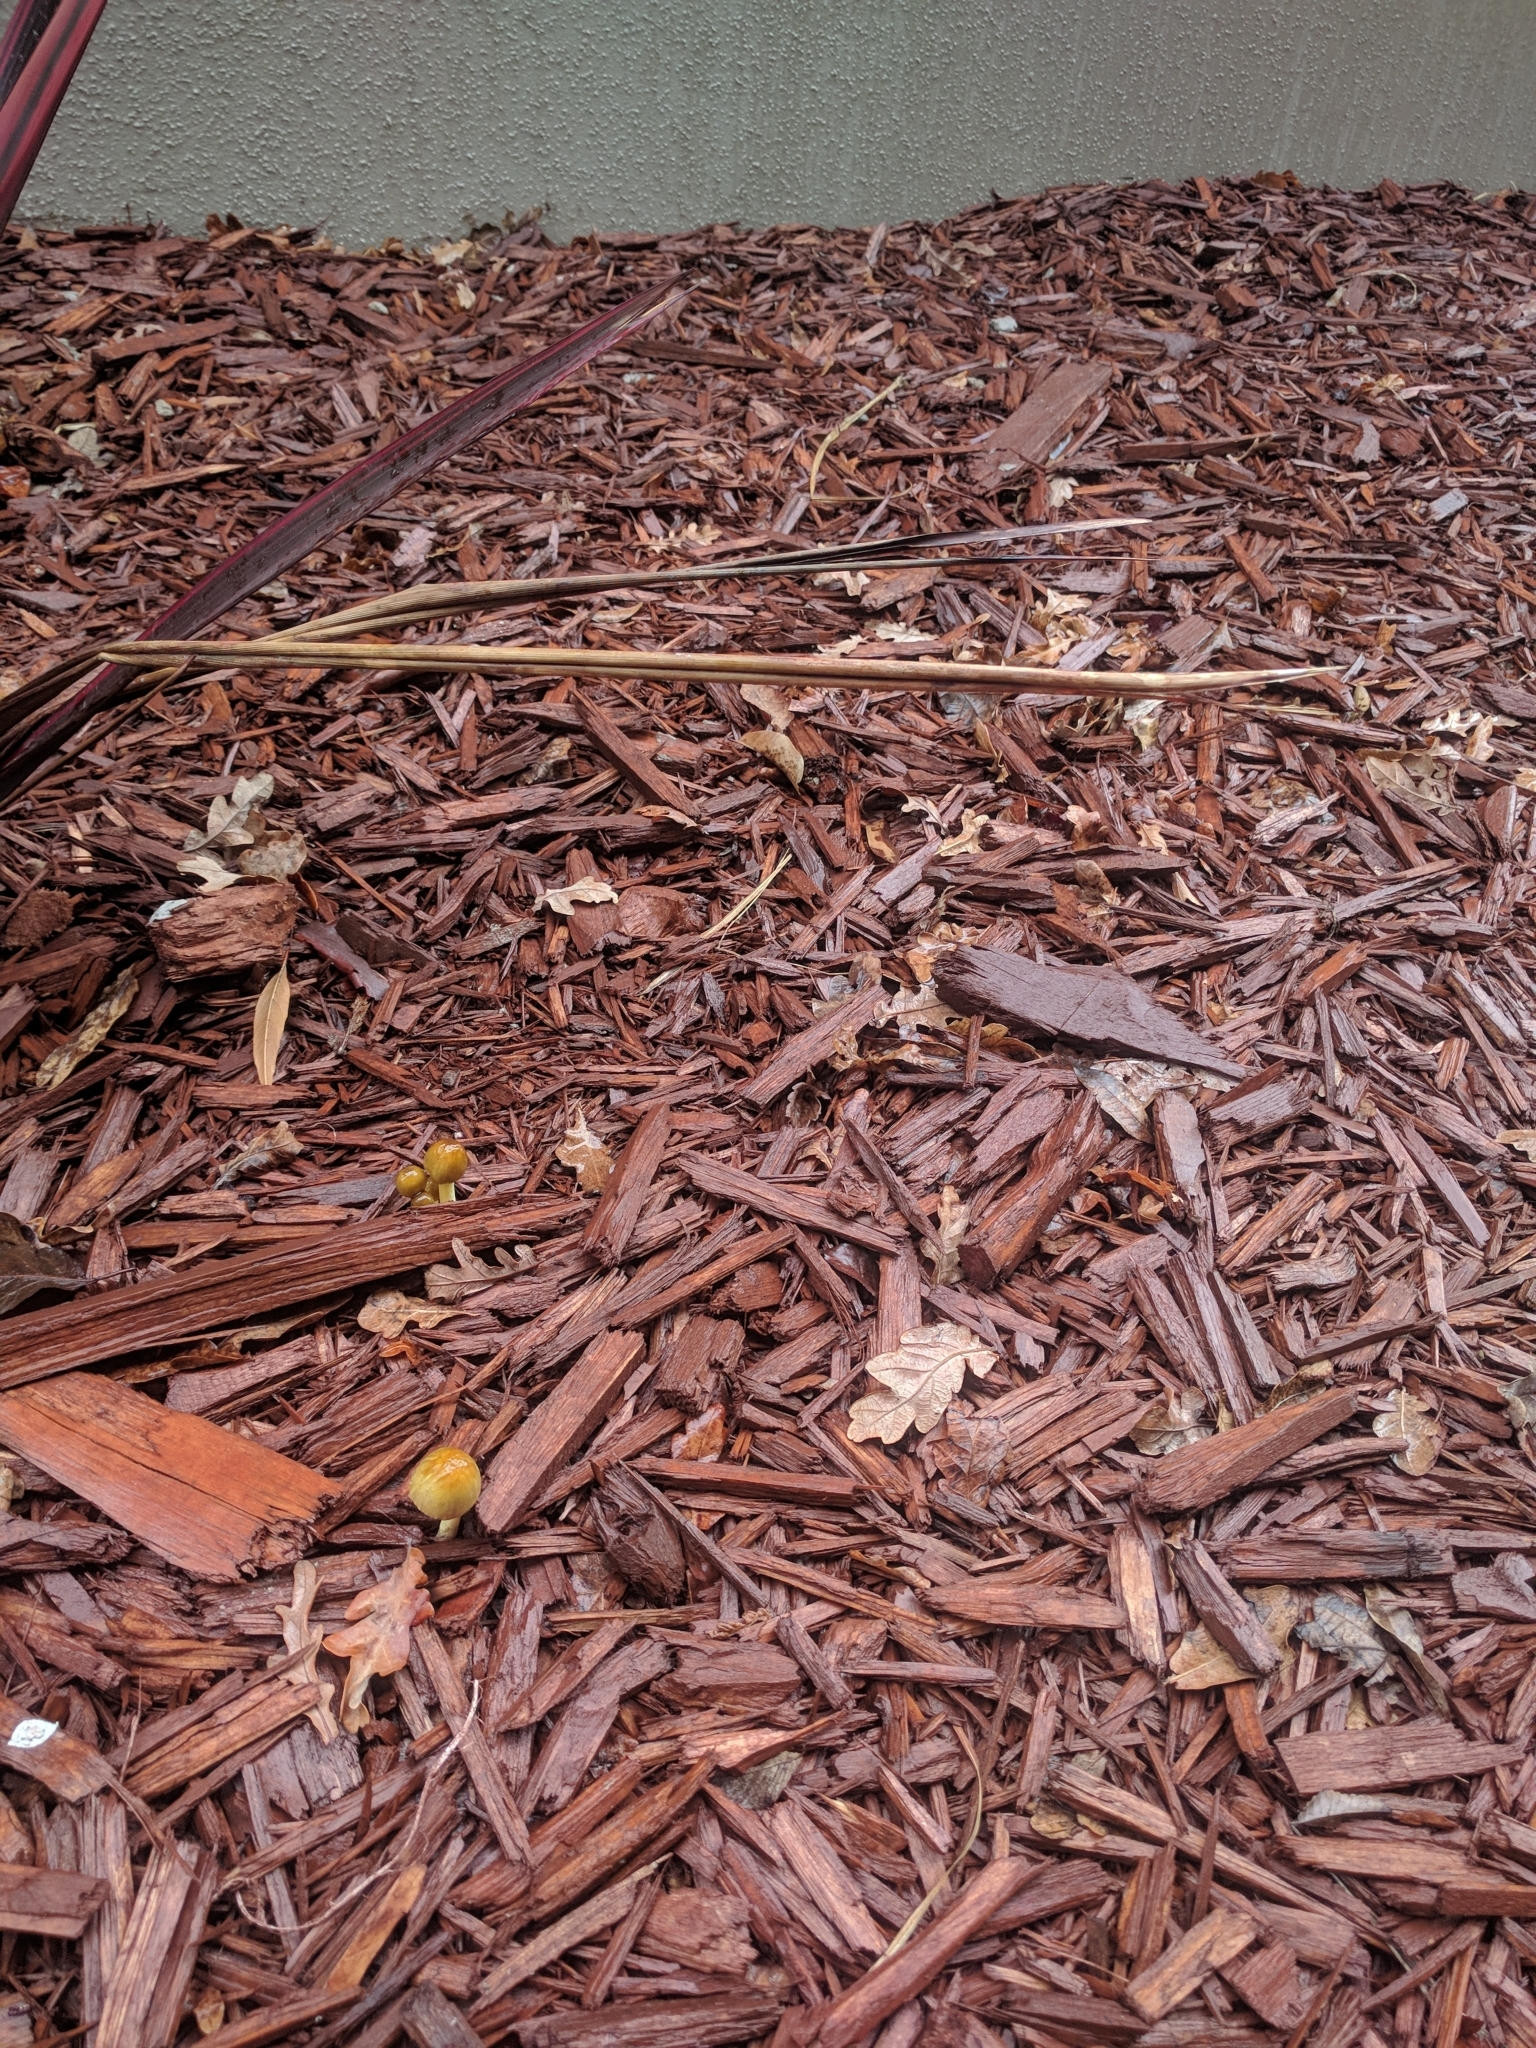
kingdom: Fungi
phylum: Basidiomycota
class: Agaricomycetes
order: Agaricales
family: Bolbitiaceae
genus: Bolbitius
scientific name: Bolbitius titubans
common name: Yellow fieldcap
